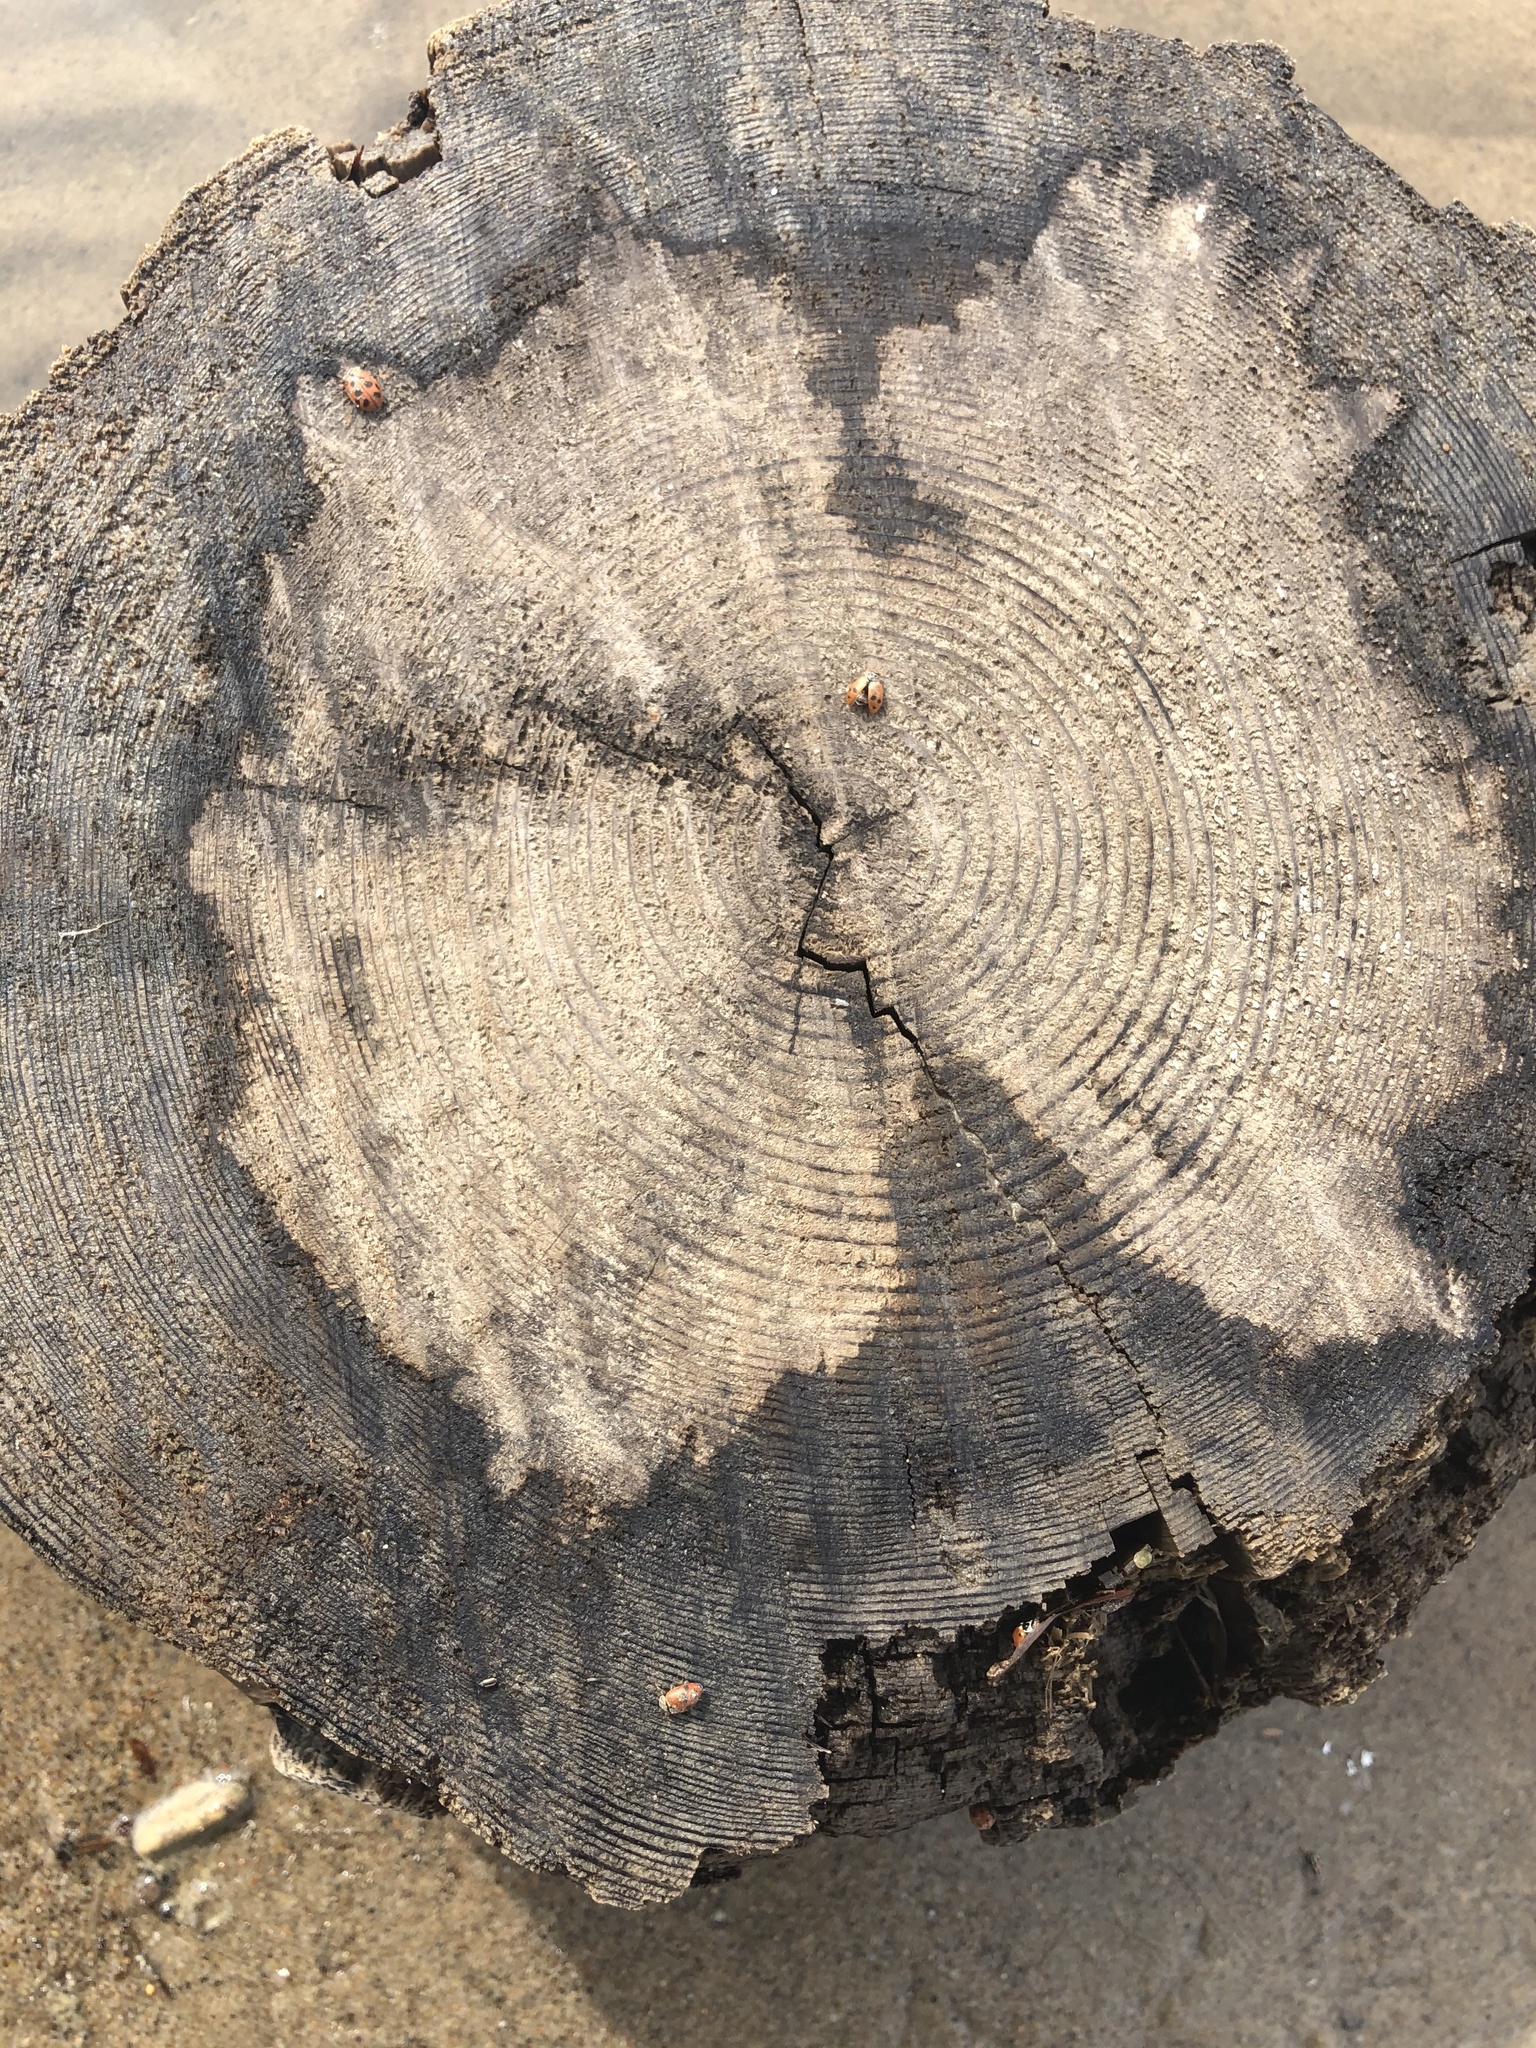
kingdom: Animalia
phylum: Arthropoda
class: Insecta
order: Coleoptera
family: Coccinellidae
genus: Hippodamia
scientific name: Hippodamia variegata
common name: Ladybird beetle
